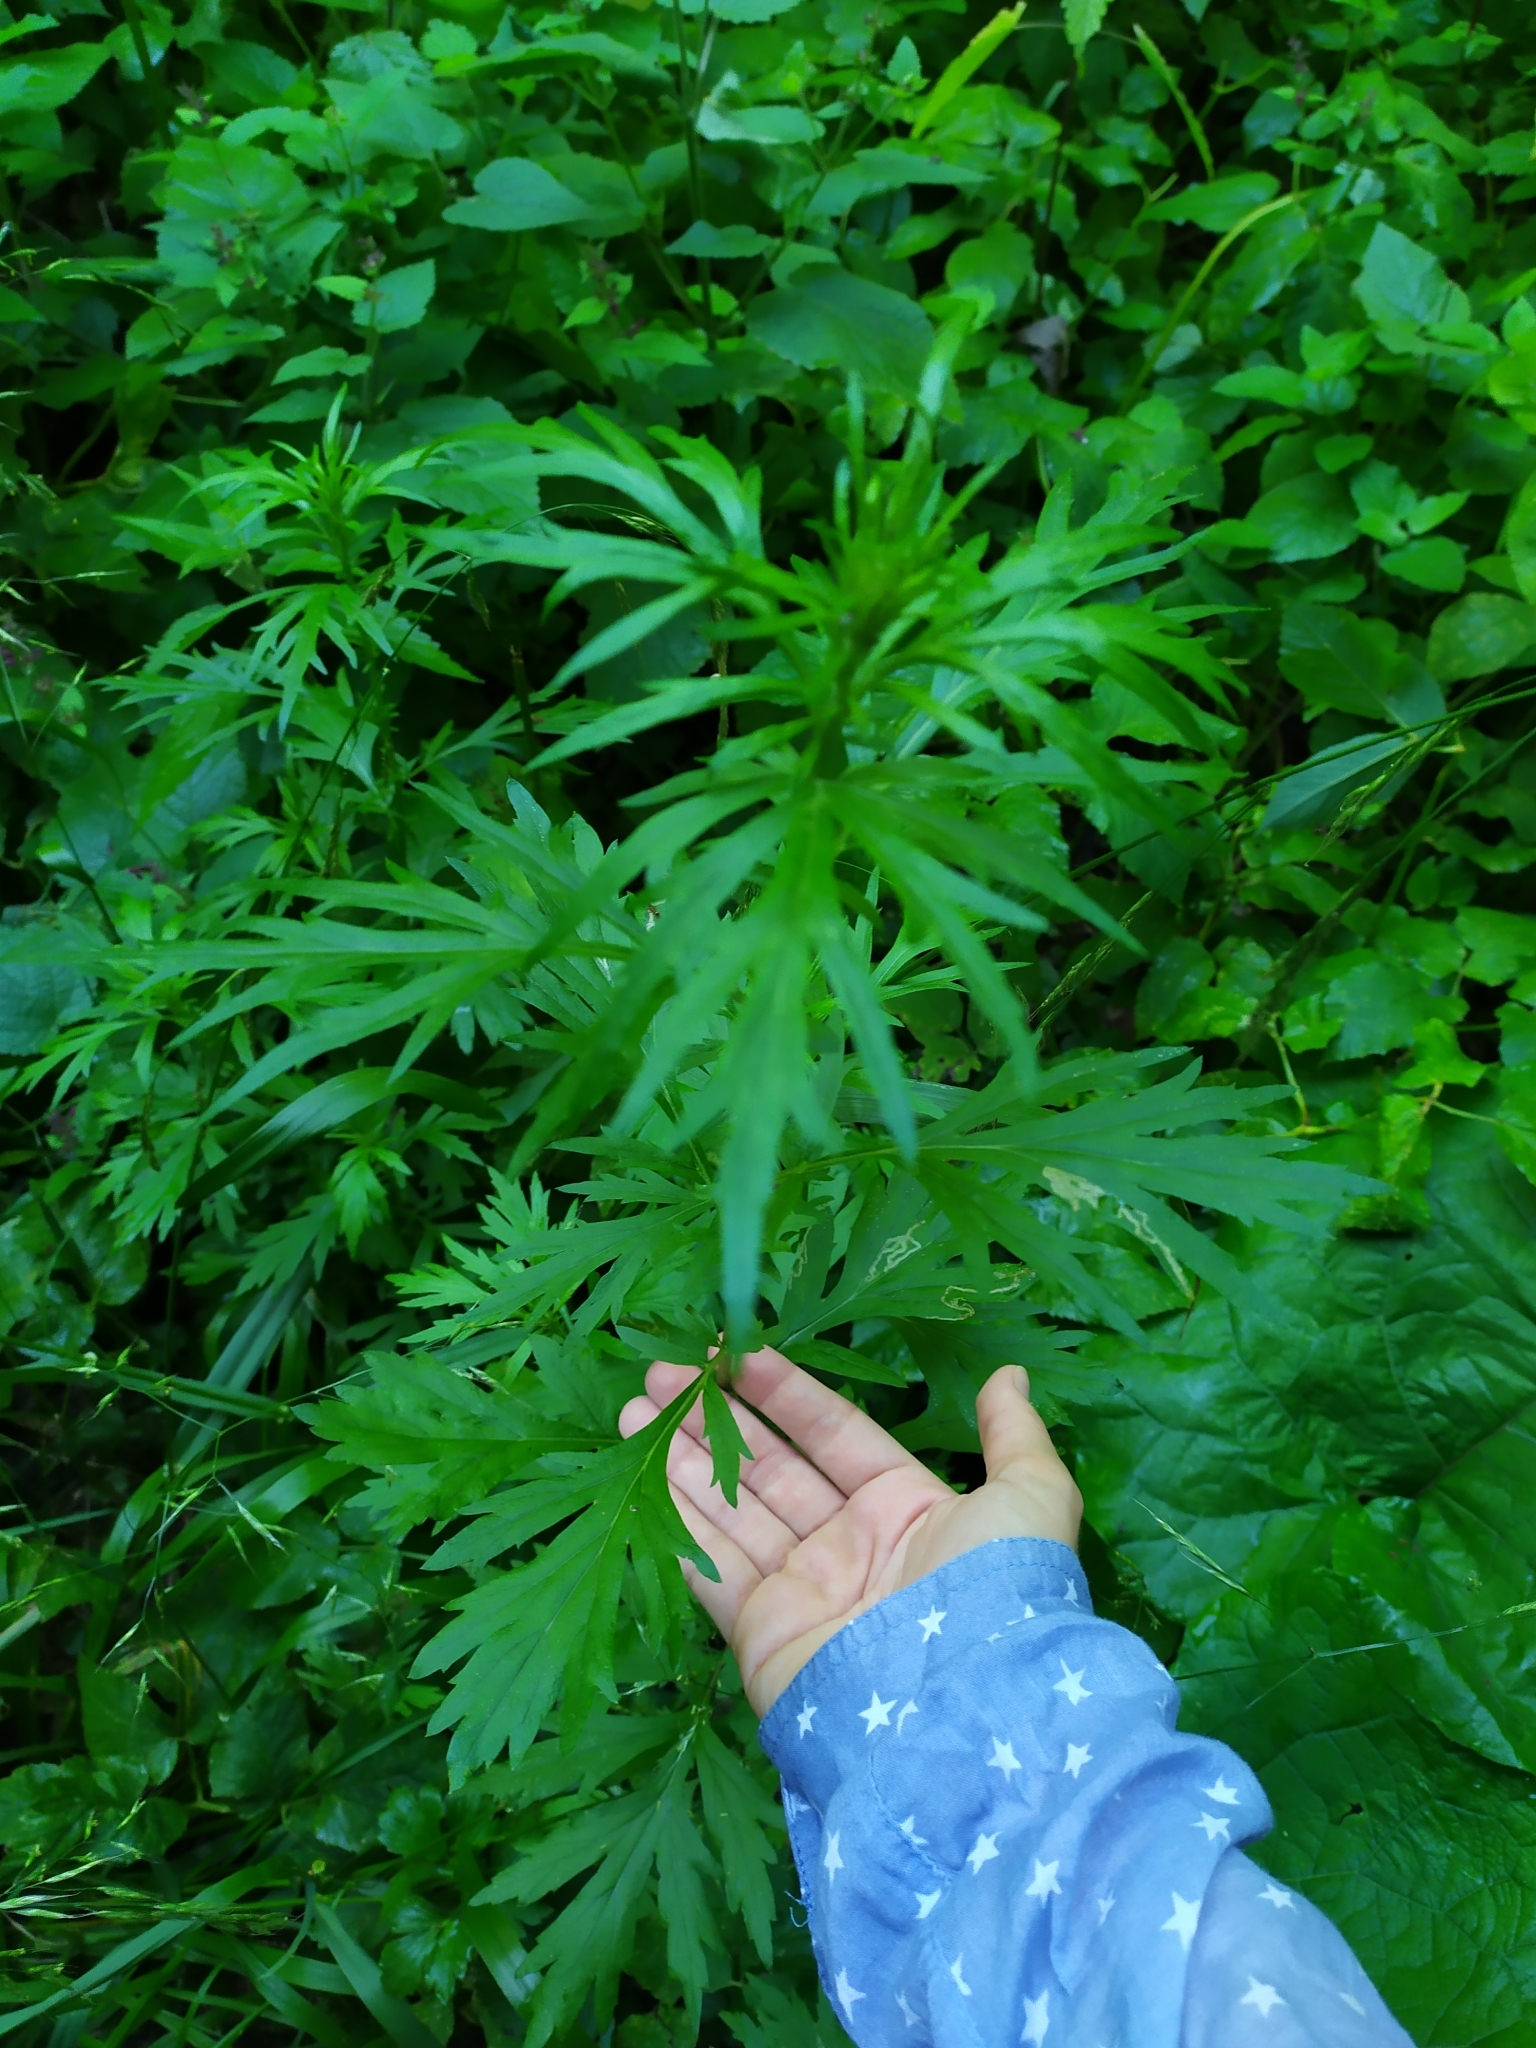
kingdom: Plantae
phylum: Tracheophyta
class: Magnoliopsida
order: Asterales
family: Asteraceae
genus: Artemisia
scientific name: Artemisia vulgaris
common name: Mugwort
